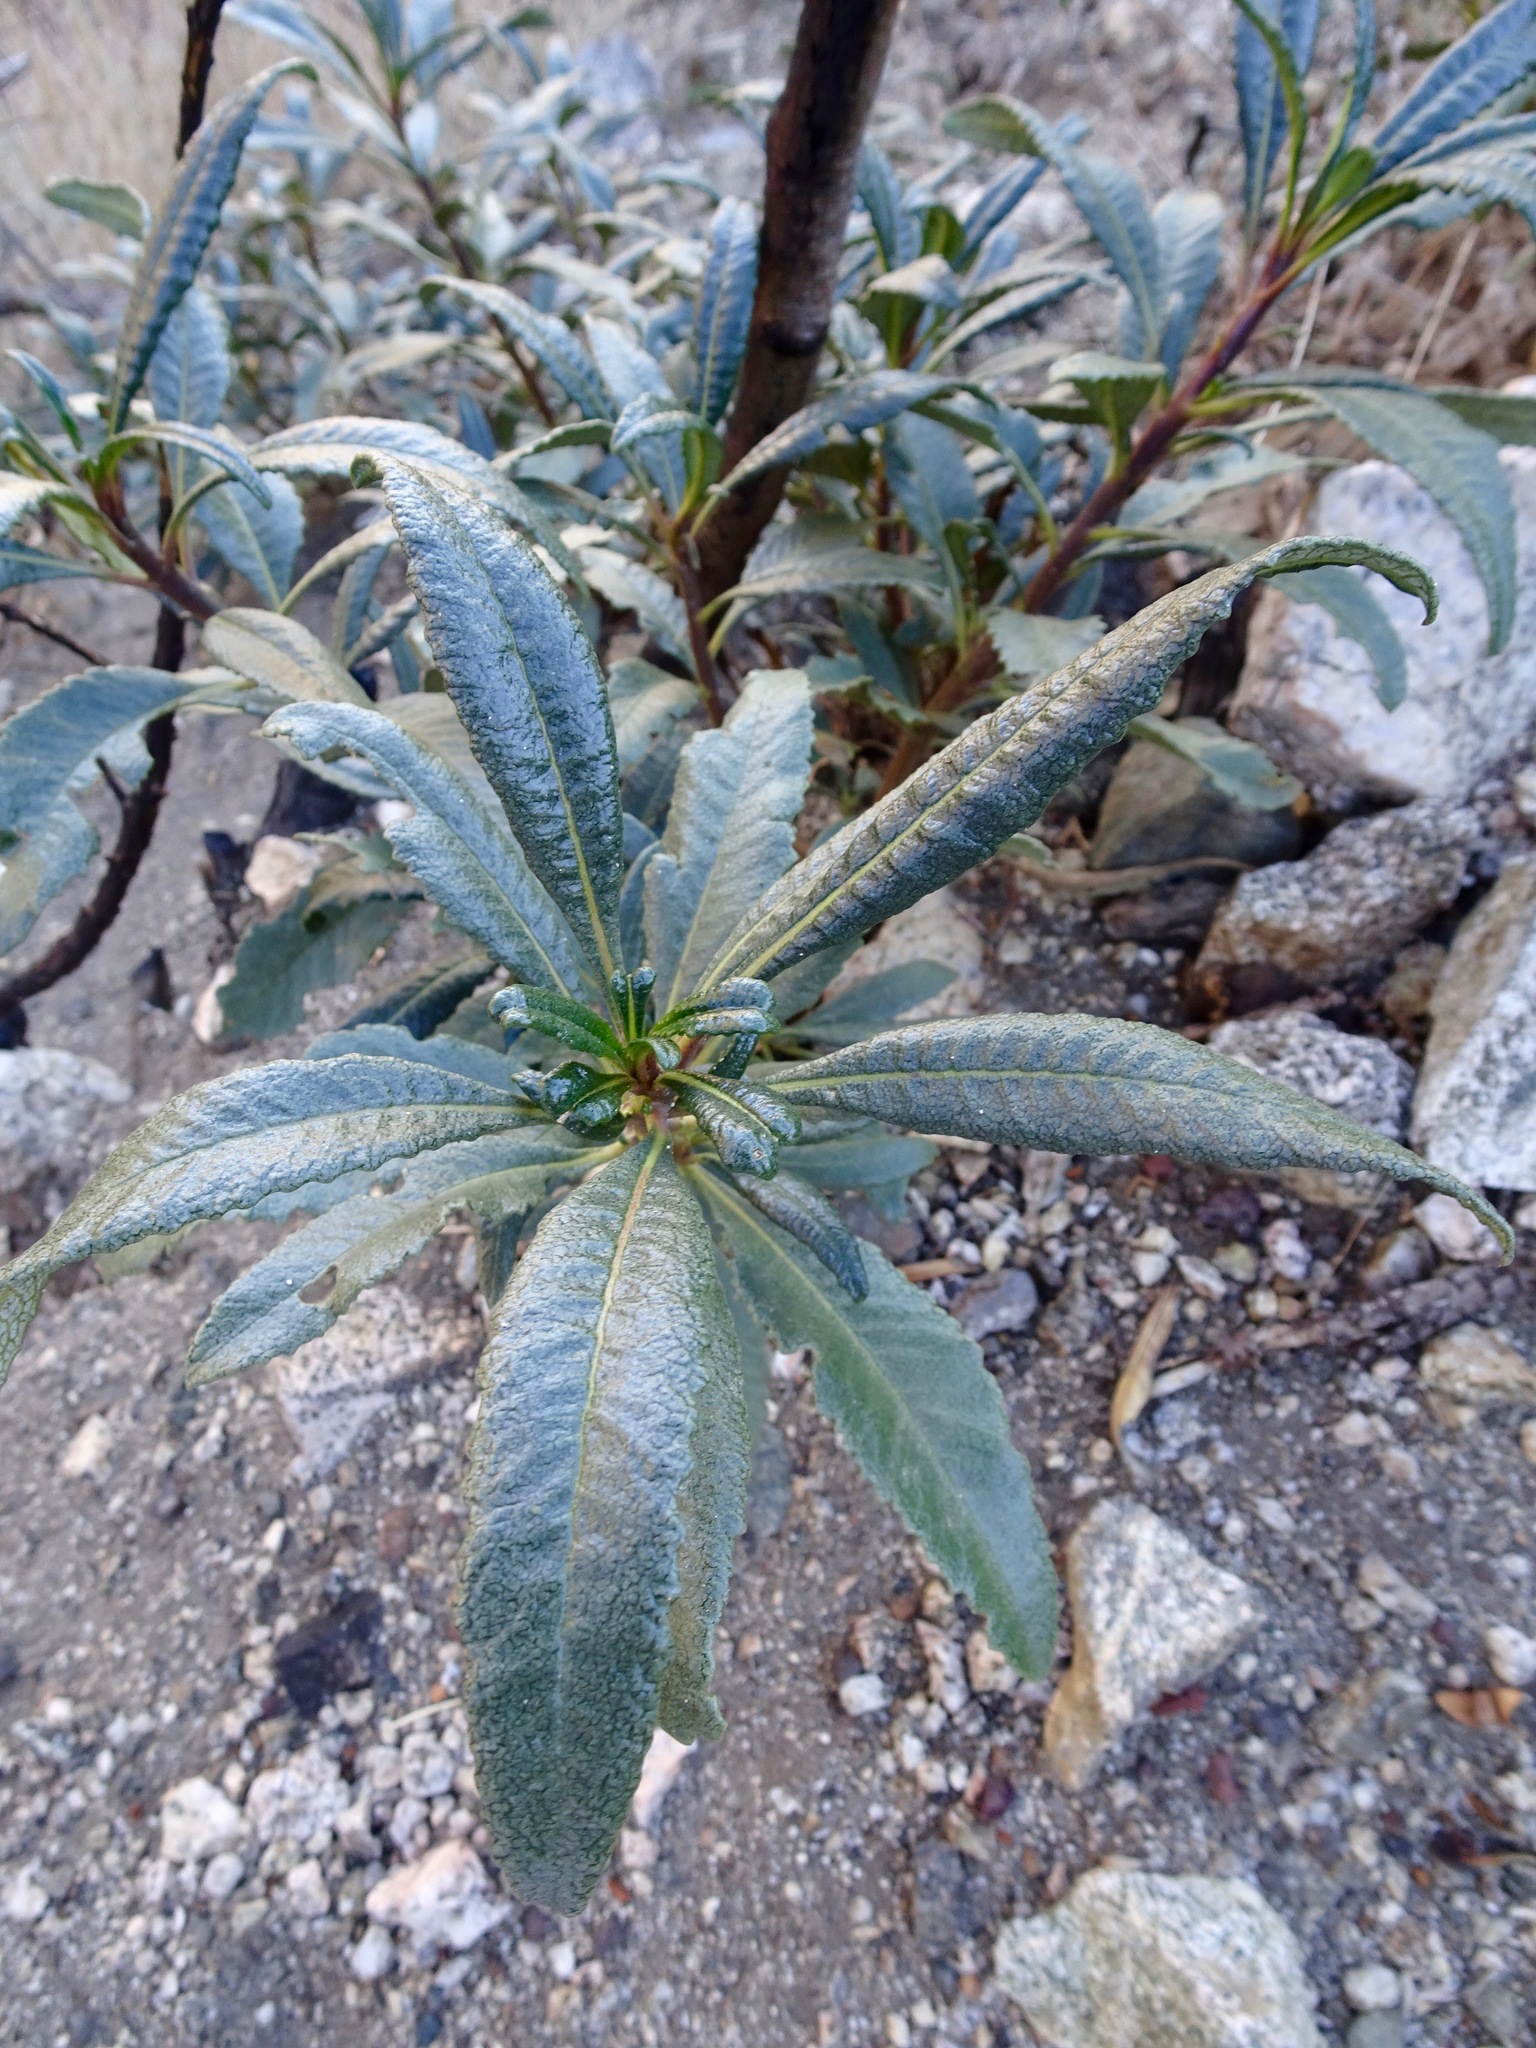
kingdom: Plantae
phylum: Tracheophyta
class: Magnoliopsida
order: Boraginales
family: Namaceae
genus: Eriodictyon
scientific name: Eriodictyon trichocalyx
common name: Hairy yerba-santa
